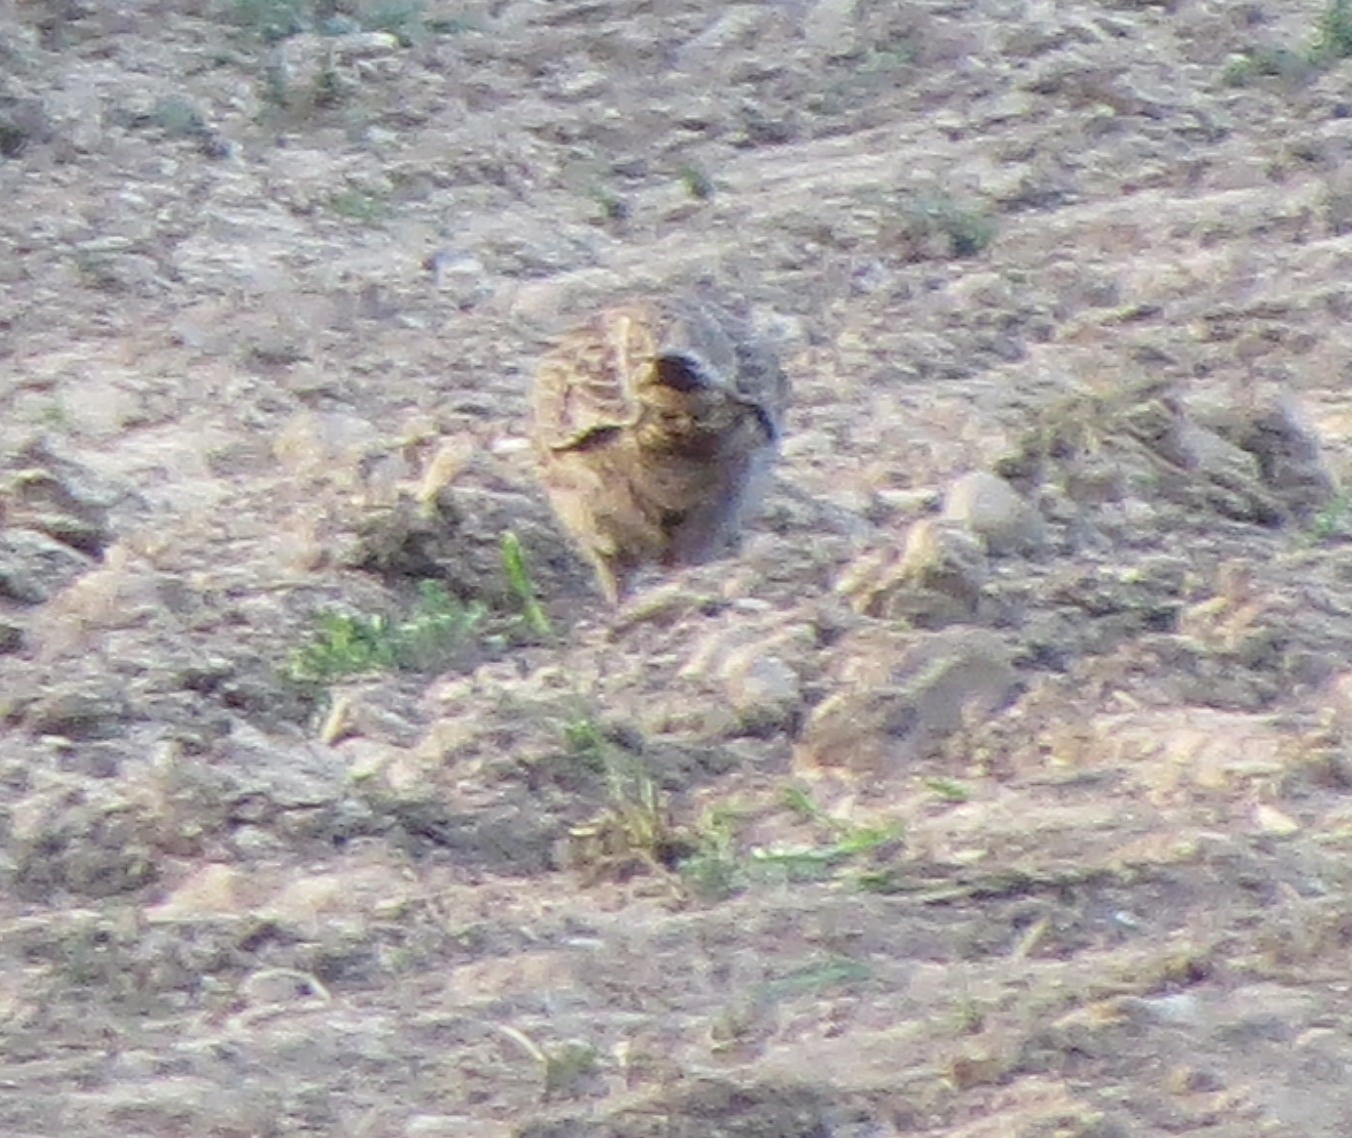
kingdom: Animalia
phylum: Chordata
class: Aves
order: Galliformes
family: Phasianidae
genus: Phasianus
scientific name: Phasianus colchicus
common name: Common pheasant
